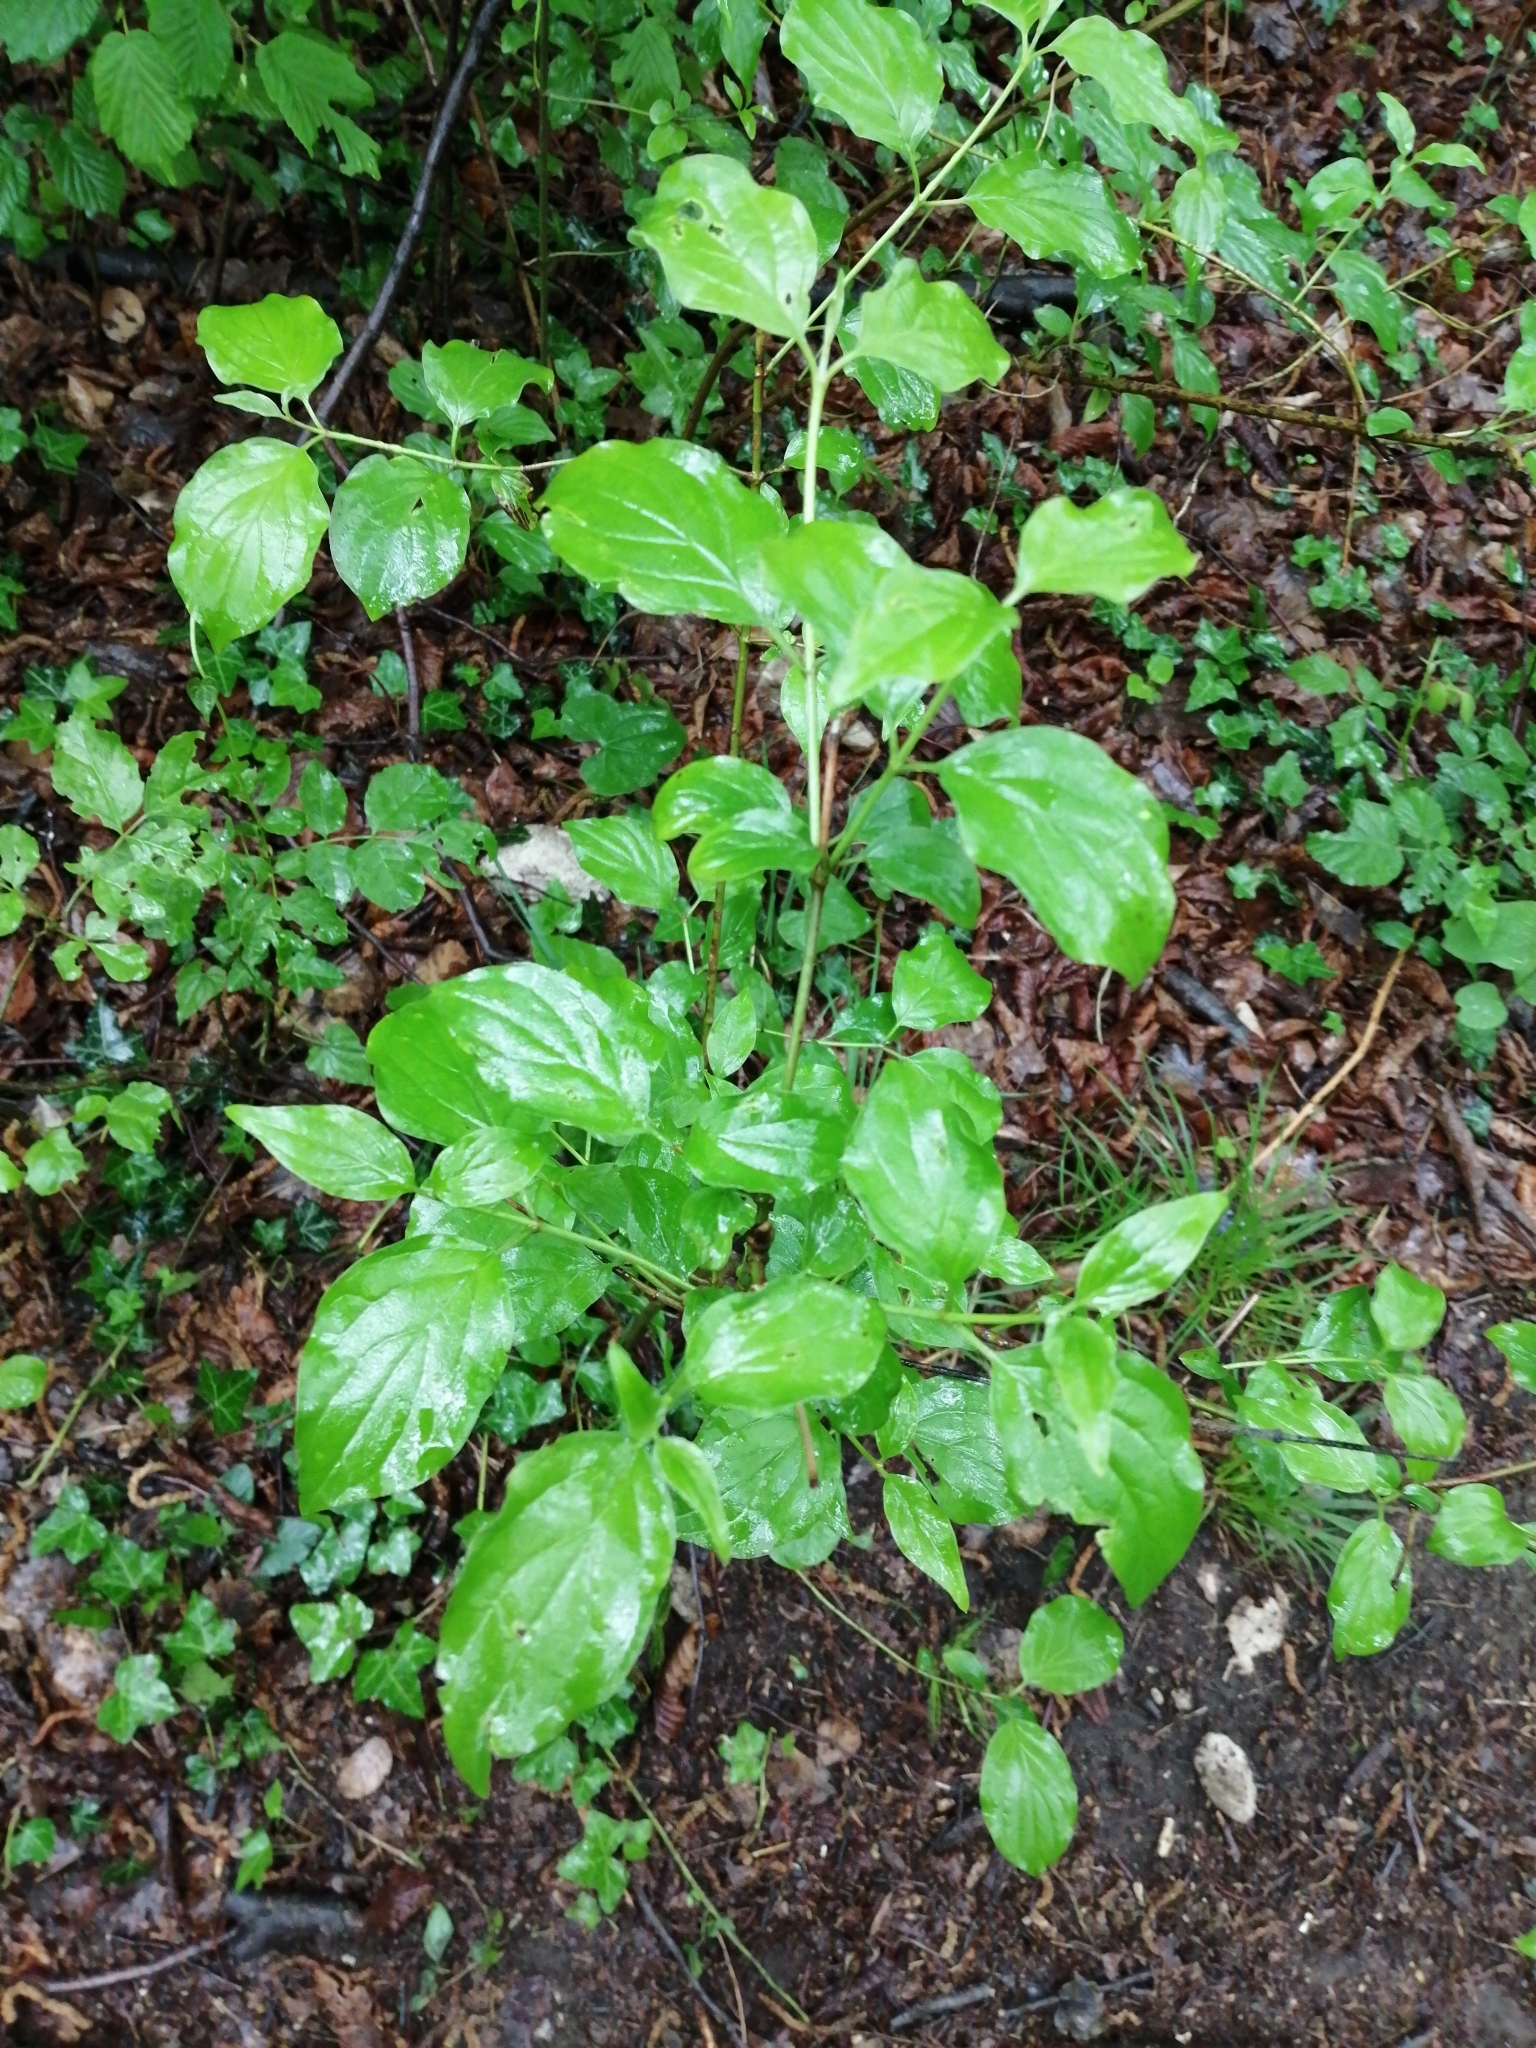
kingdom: Plantae
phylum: Tracheophyta
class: Magnoliopsida
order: Cornales
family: Cornaceae
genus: Cornus
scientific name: Cornus mas
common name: Cornelian-cherry
